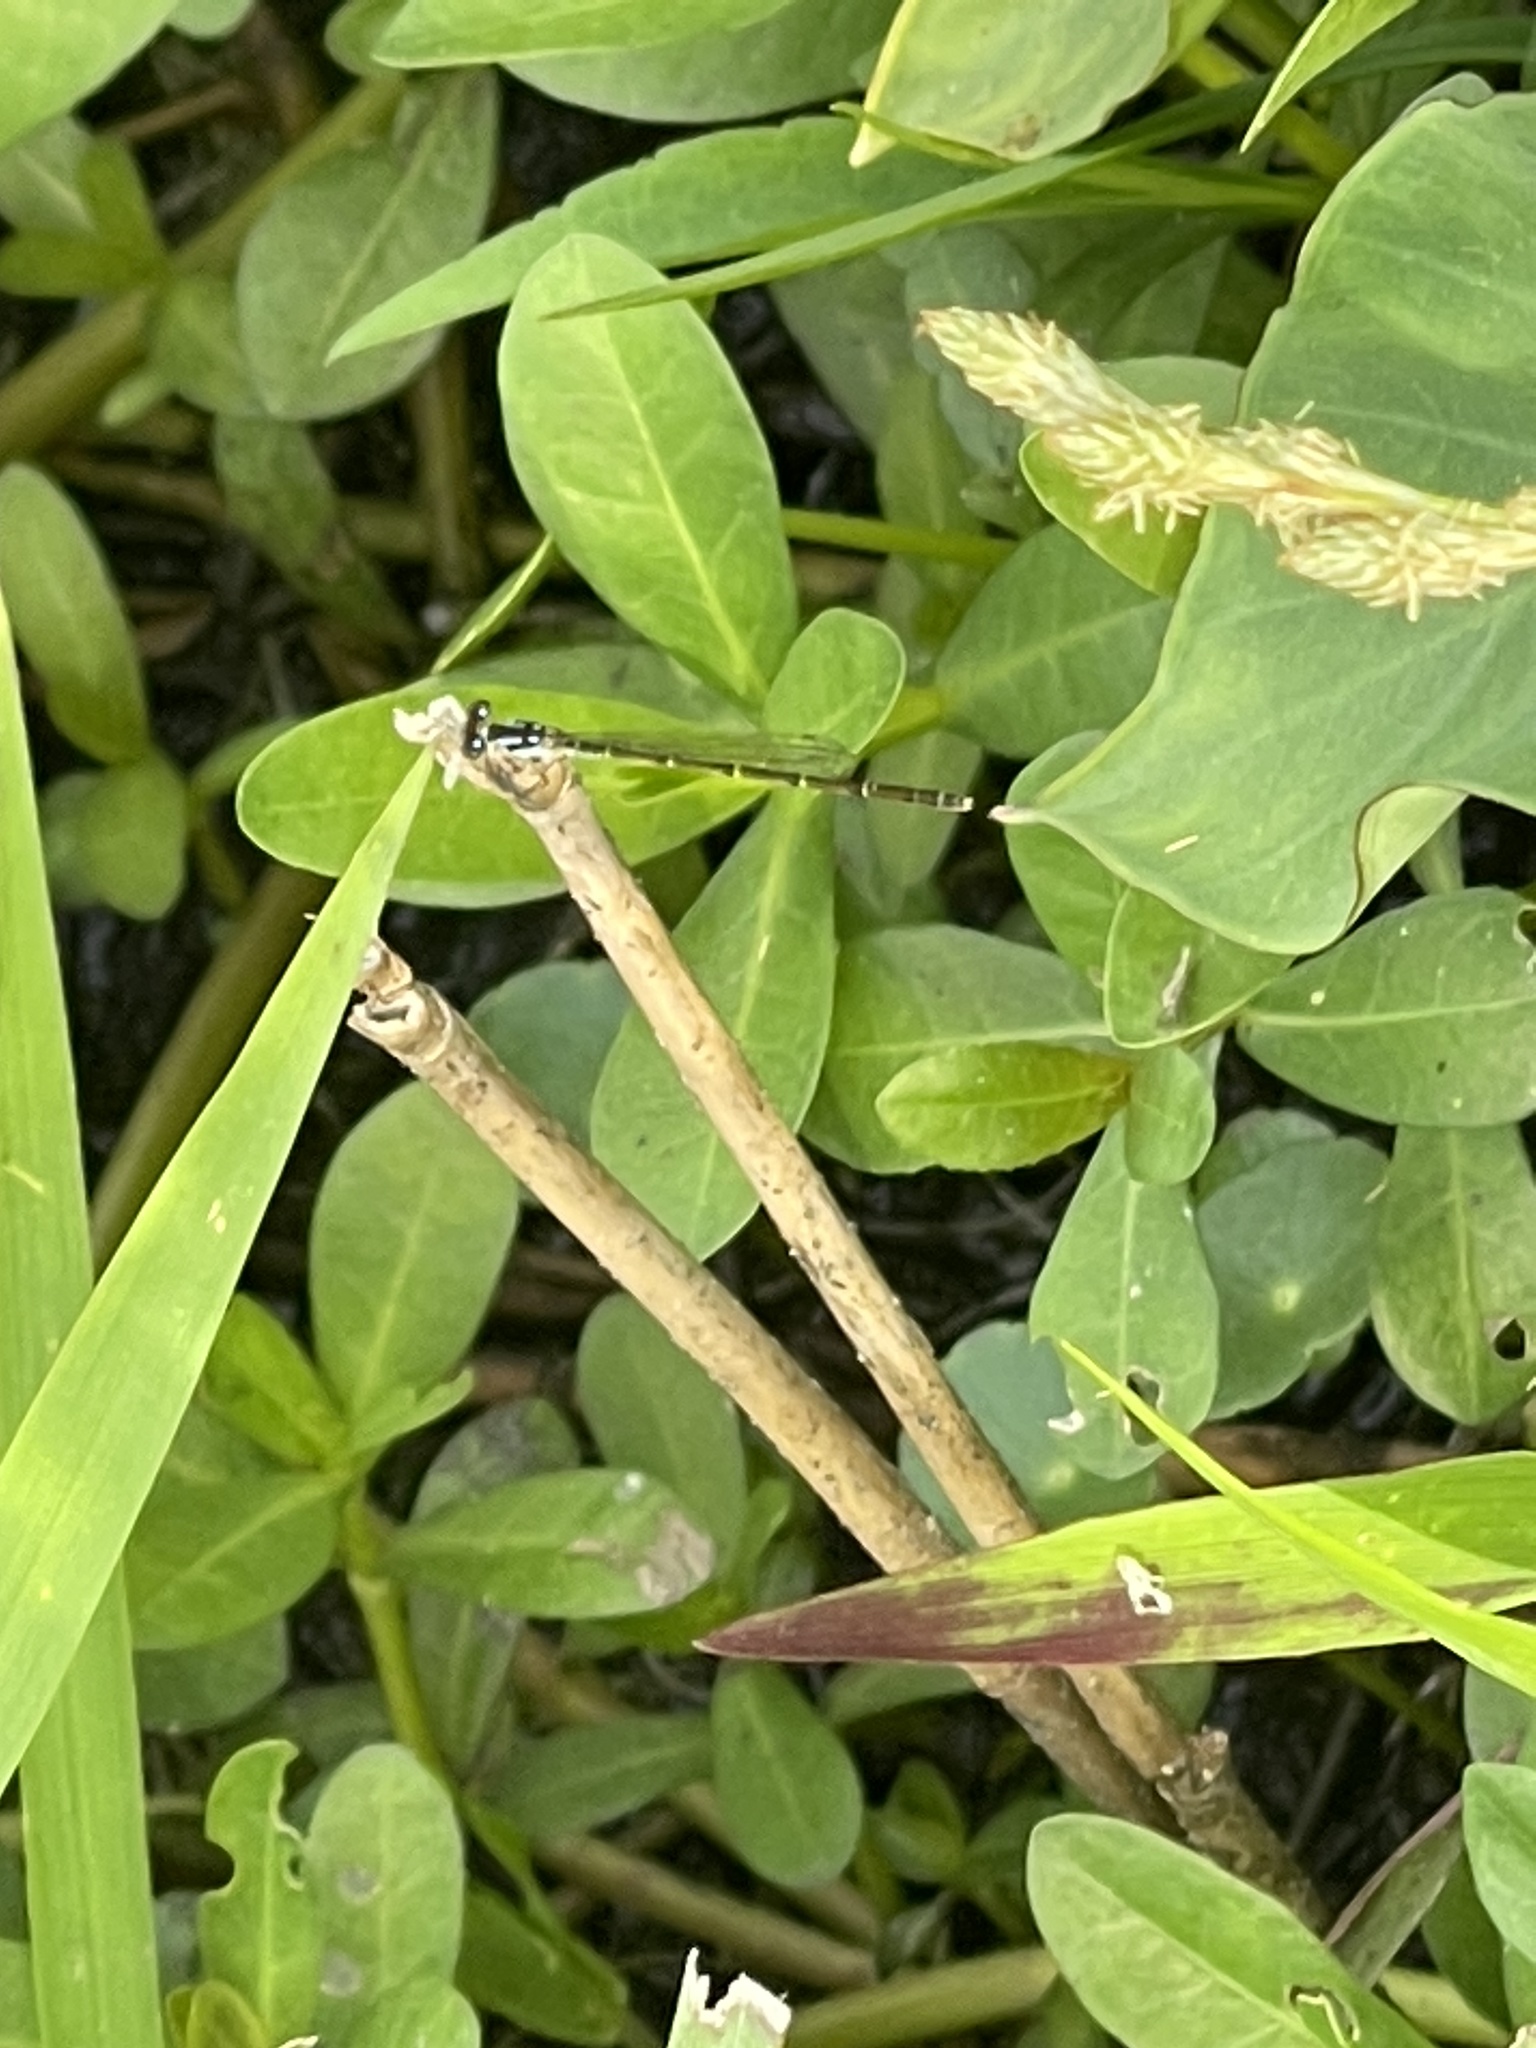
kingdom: Animalia
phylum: Arthropoda
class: Insecta
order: Odonata
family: Coenagrionidae
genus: Ischnura
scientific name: Ischnura posita
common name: Fragile forktail
